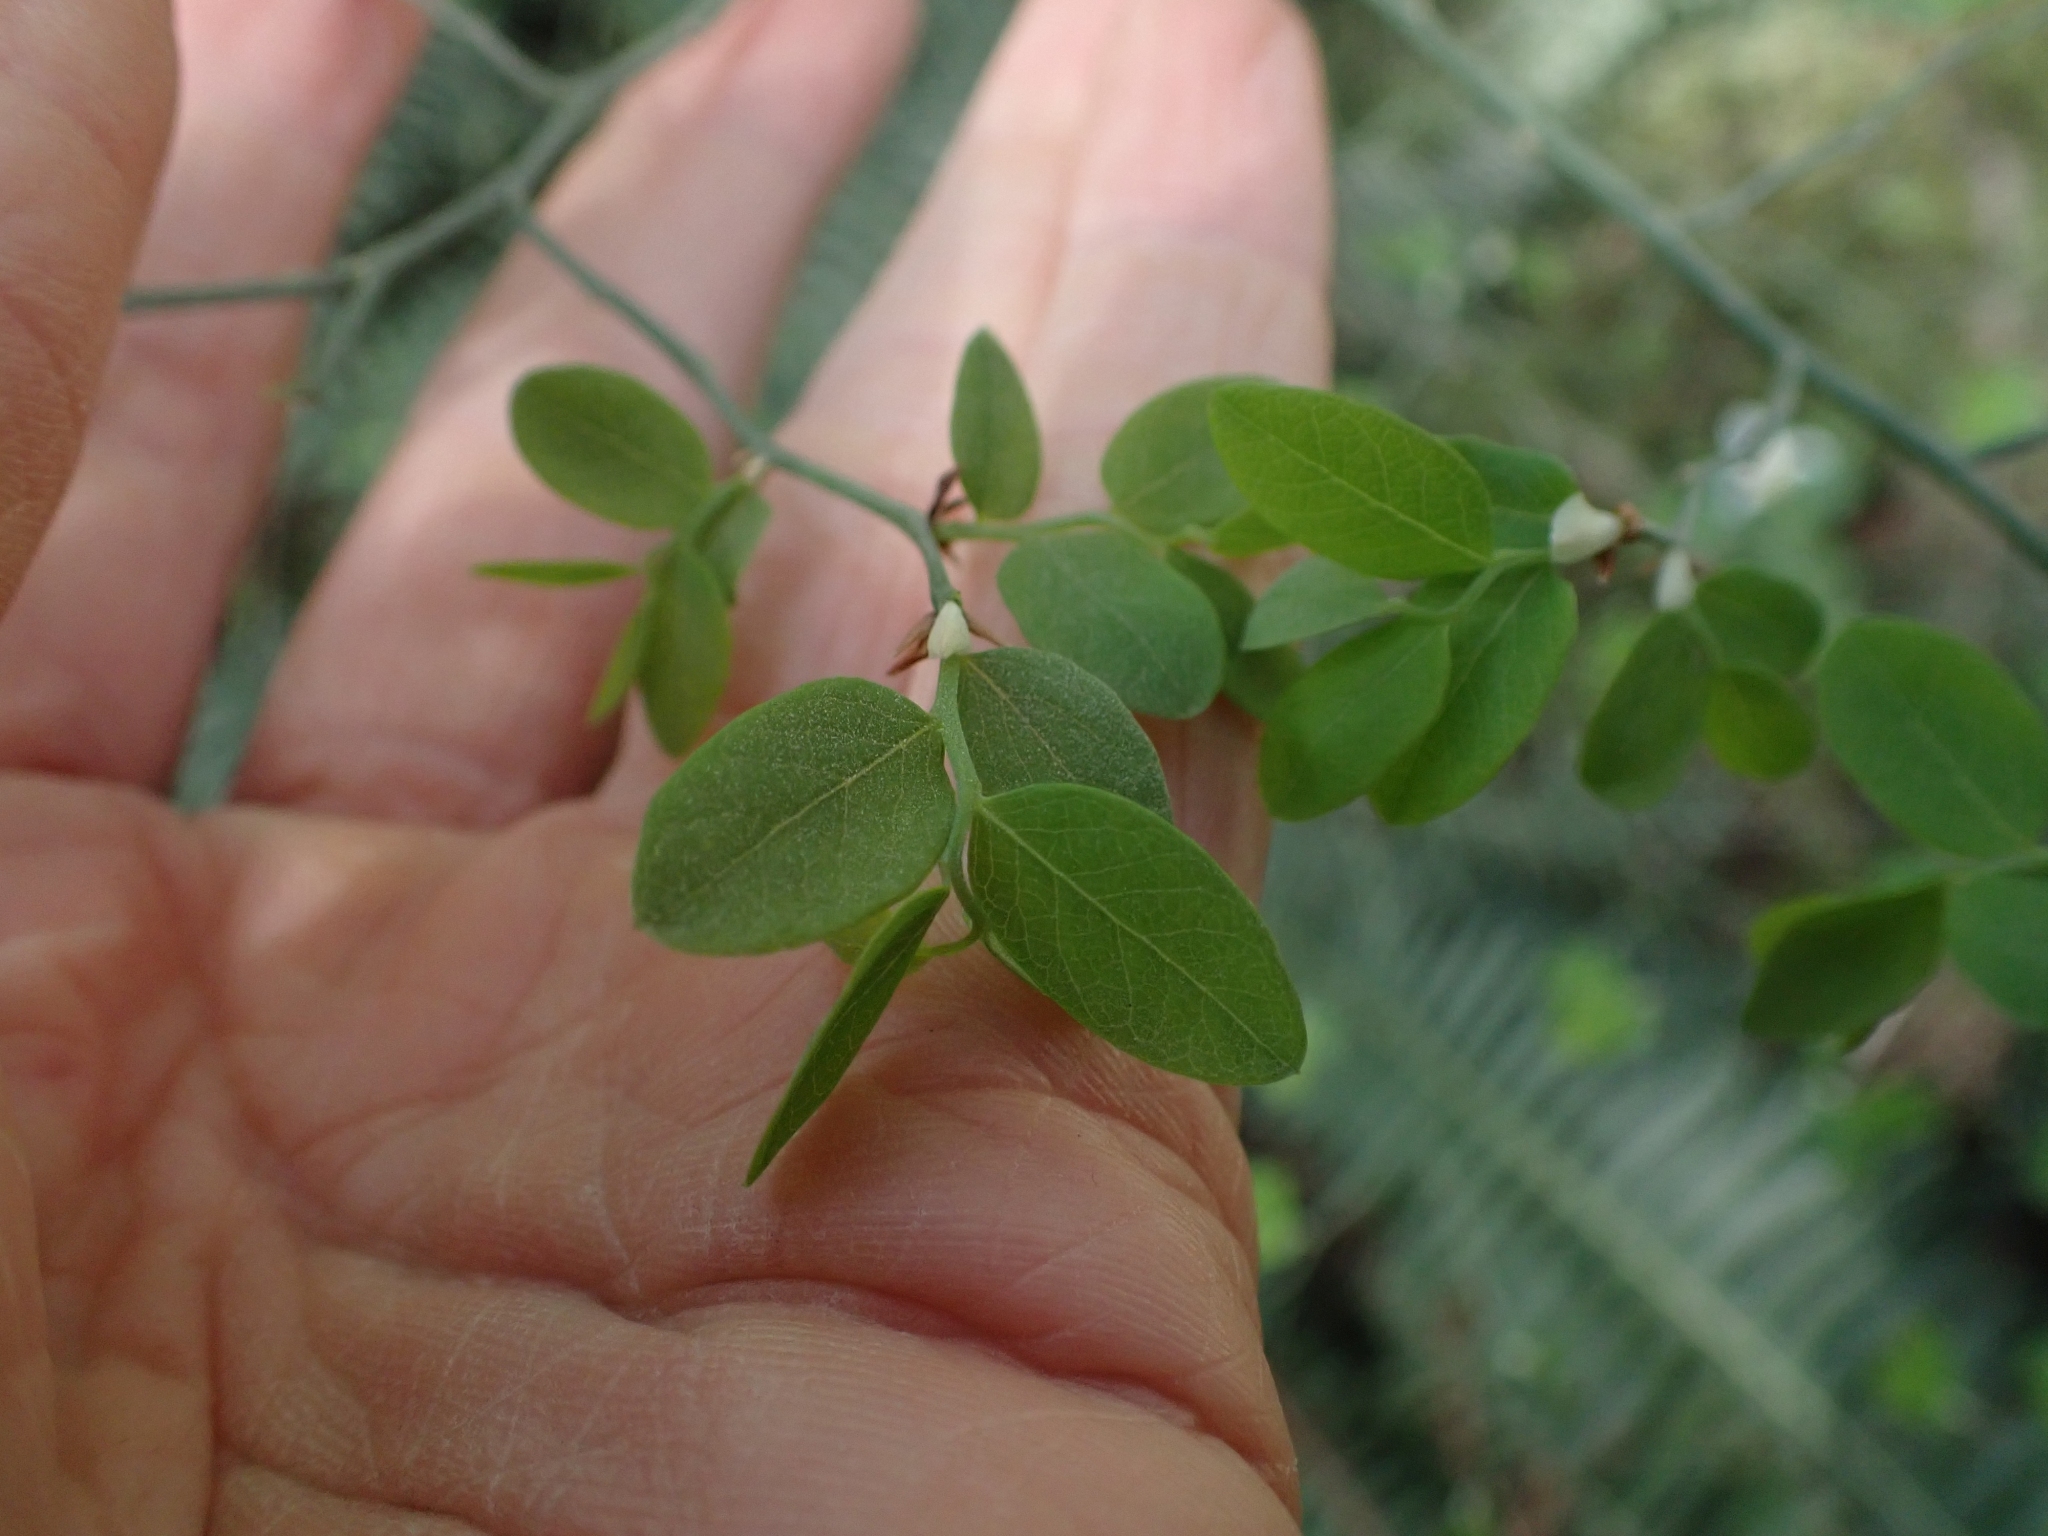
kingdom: Plantae
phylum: Tracheophyta
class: Magnoliopsida
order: Ericales
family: Ericaceae
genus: Vaccinium
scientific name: Vaccinium parvifolium
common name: Red-huckleberry
